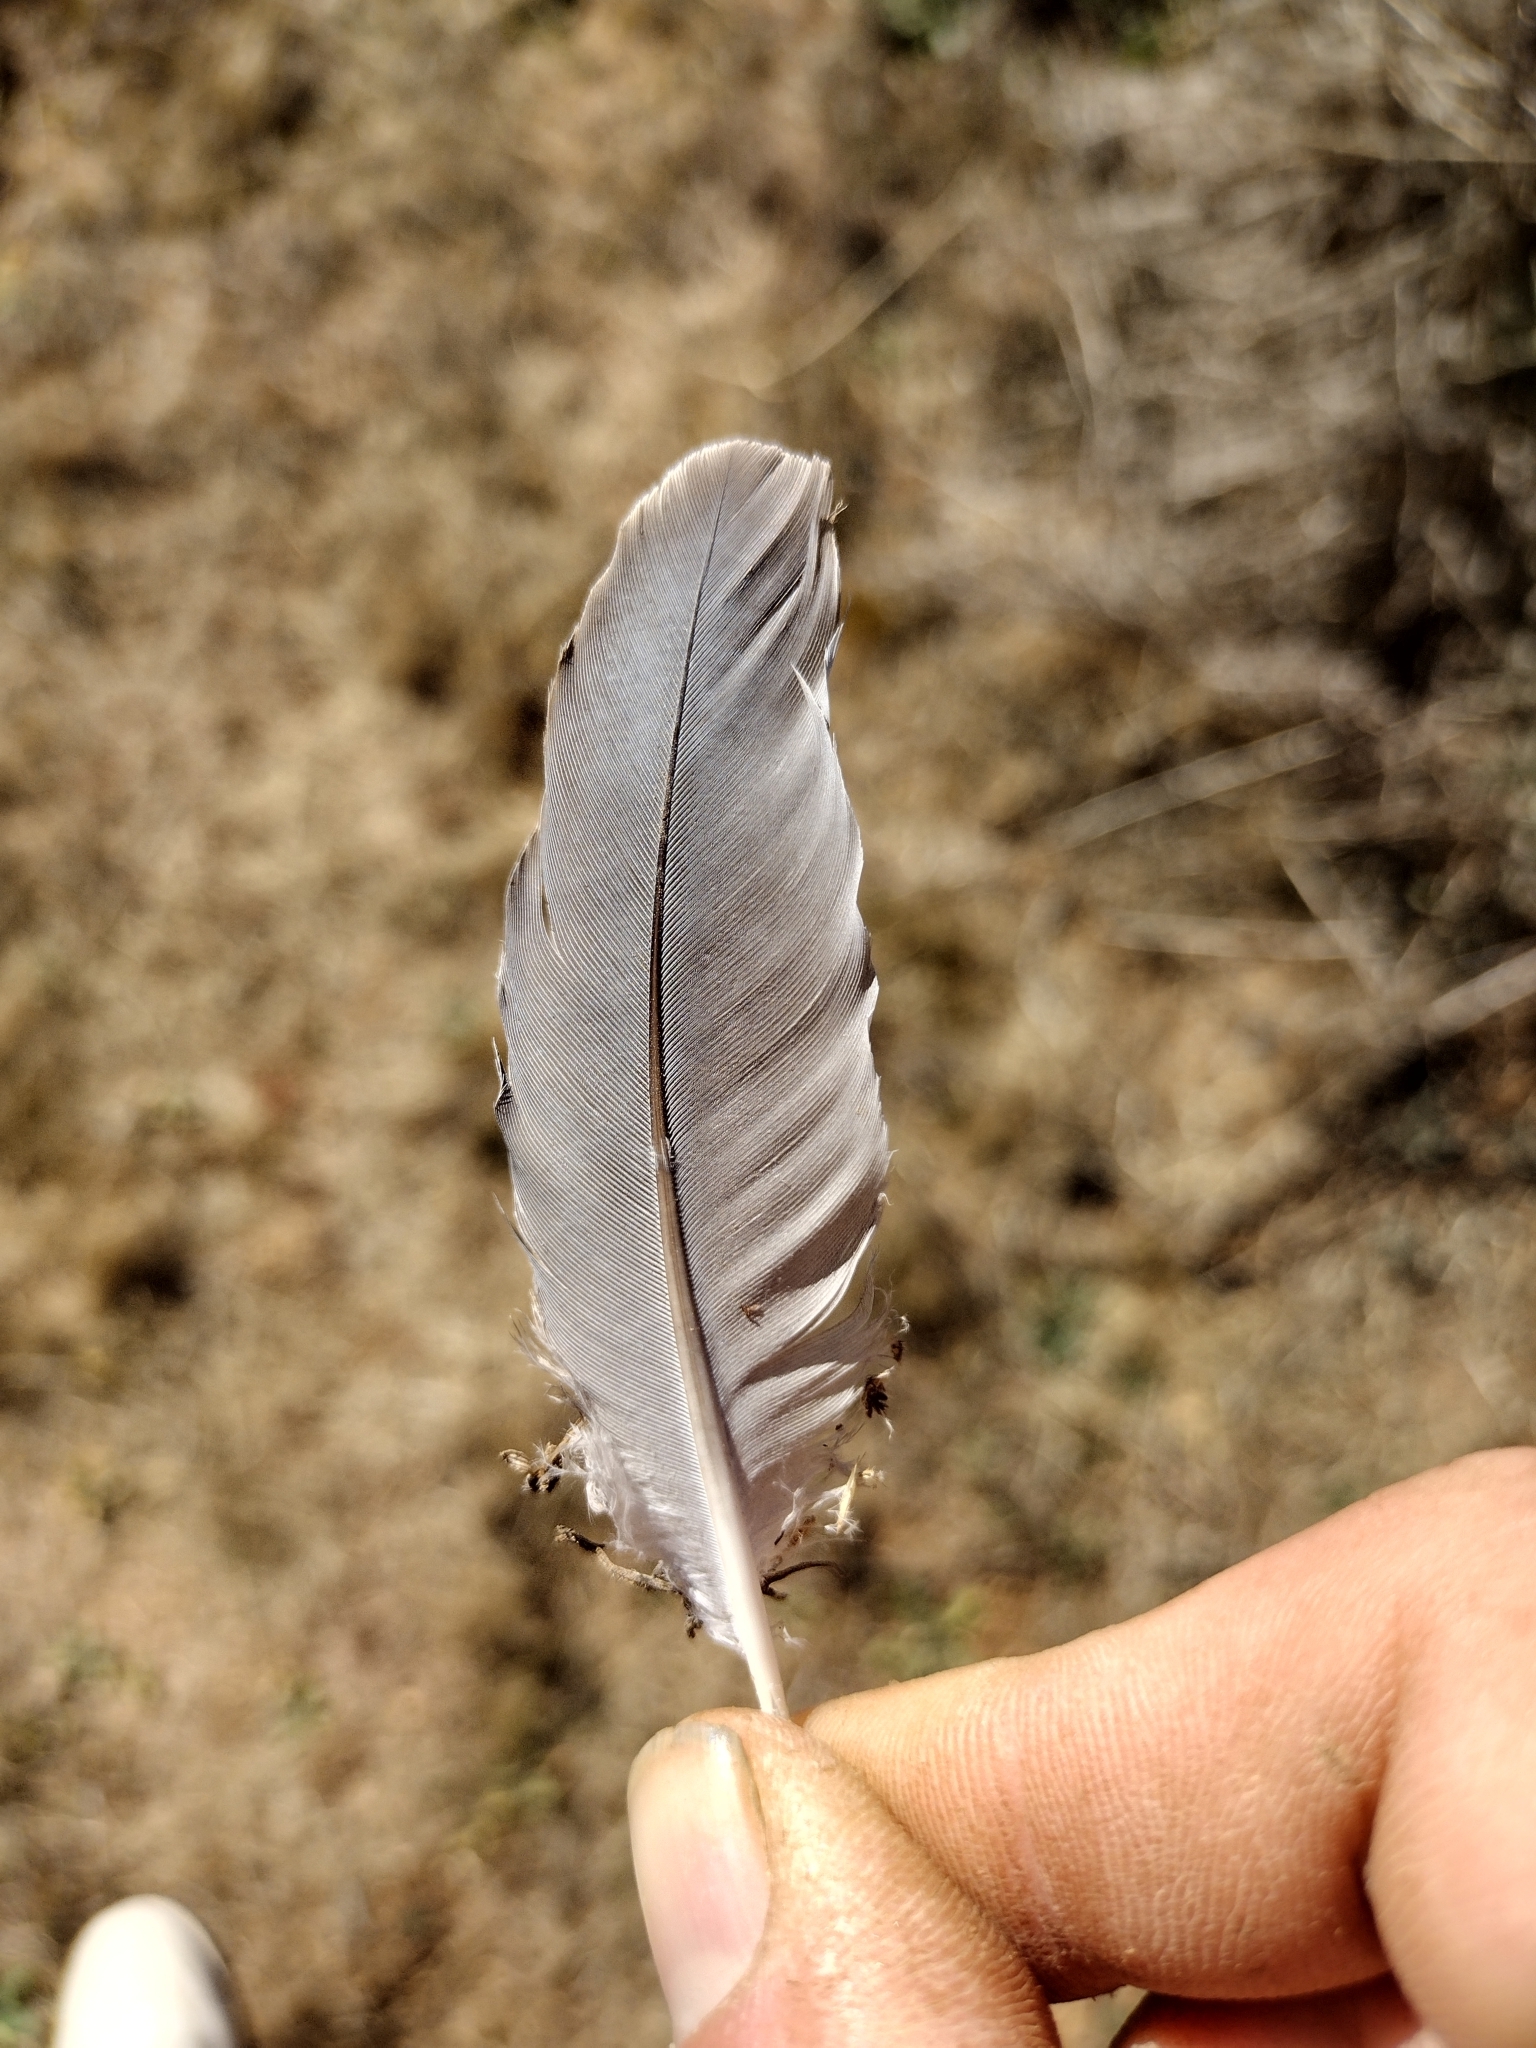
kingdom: Animalia
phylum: Chordata
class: Aves
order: Columbiformes
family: Columbidae
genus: Zenaida
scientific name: Zenaida macroura
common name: Mourning dove
